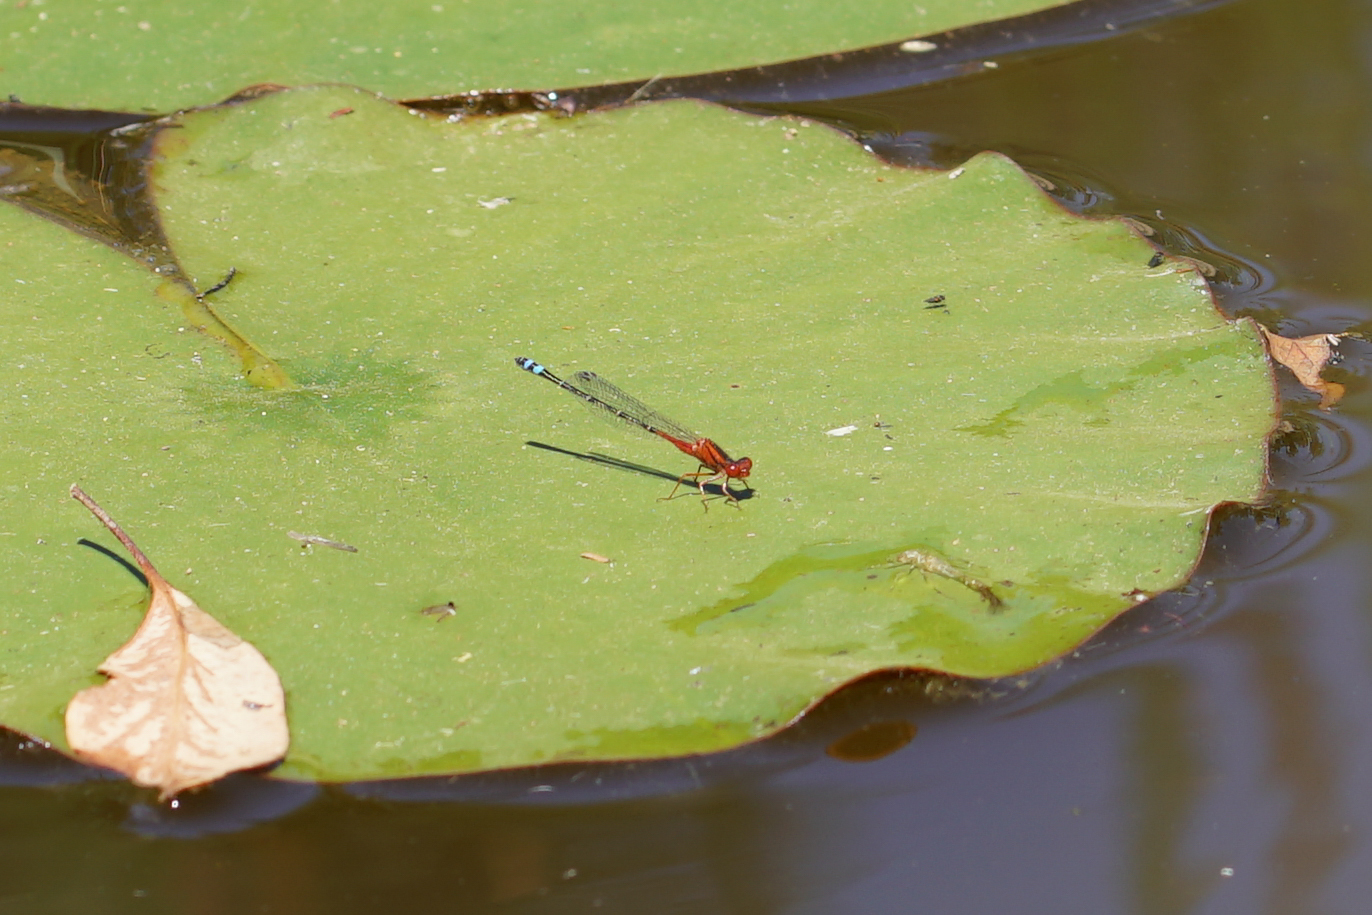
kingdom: Animalia
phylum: Arthropoda
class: Insecta
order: Odonata
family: Coenagrionidae
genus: Xanthagrion
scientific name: Xanthagrion erythroneurum
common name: Red and blue damsel
